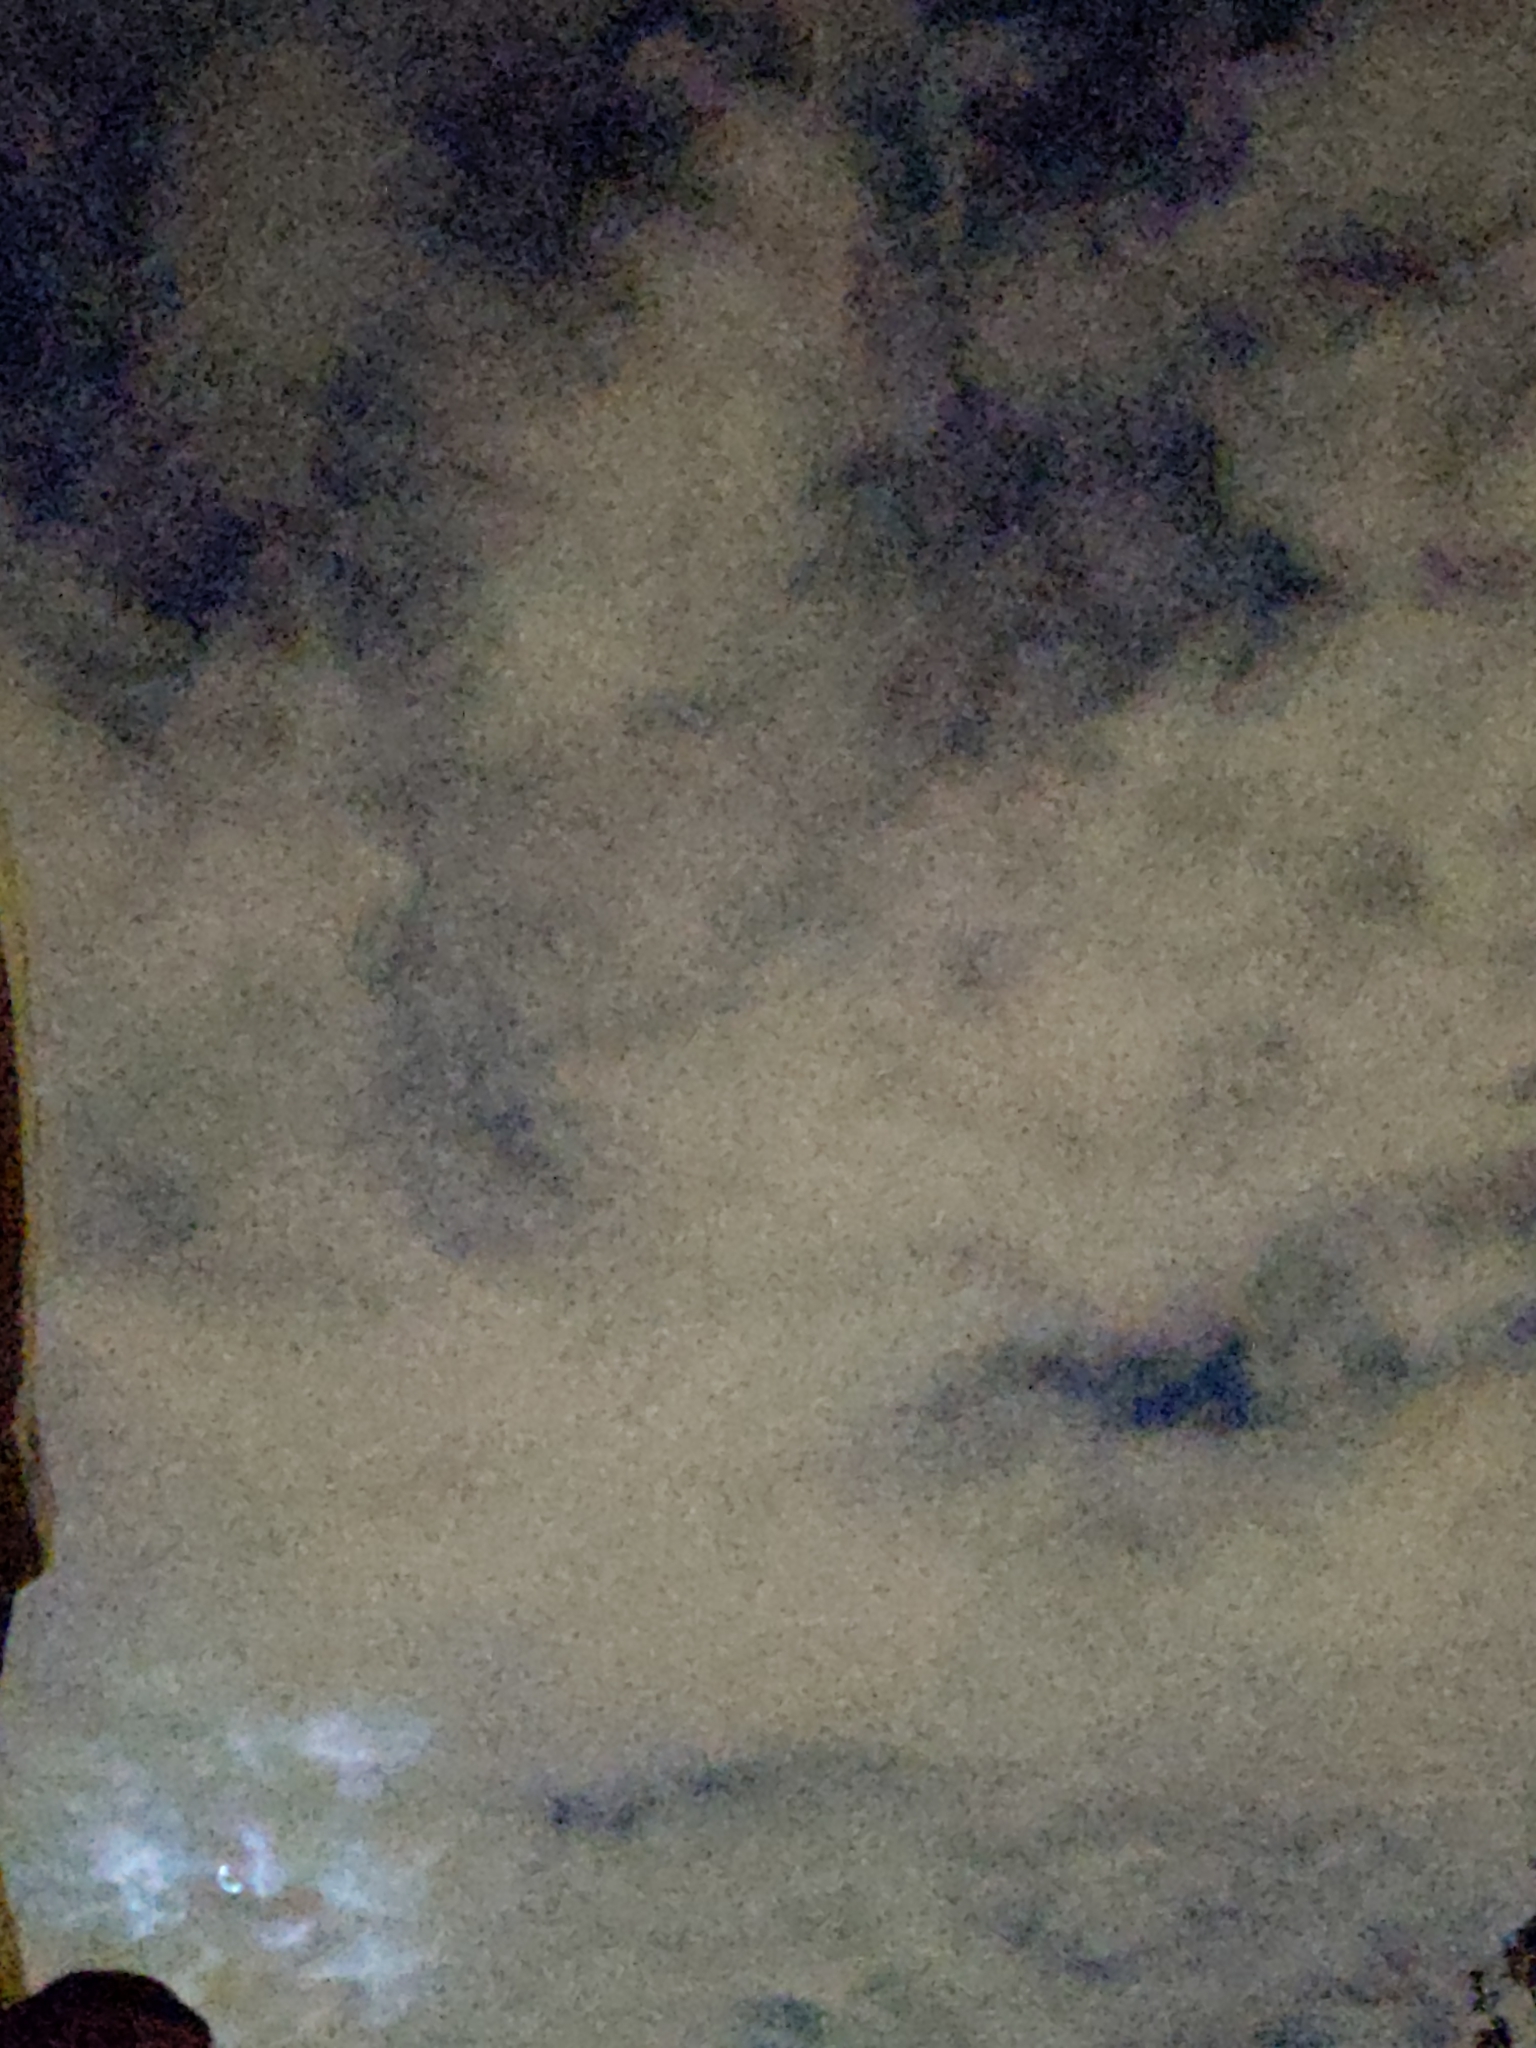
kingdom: Animalia
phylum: Chordata
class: Aves
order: Caprimulgiformes
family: Caprimulgidae
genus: Chordeiles
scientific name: Chordeiles minor
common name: Common nighthawk
